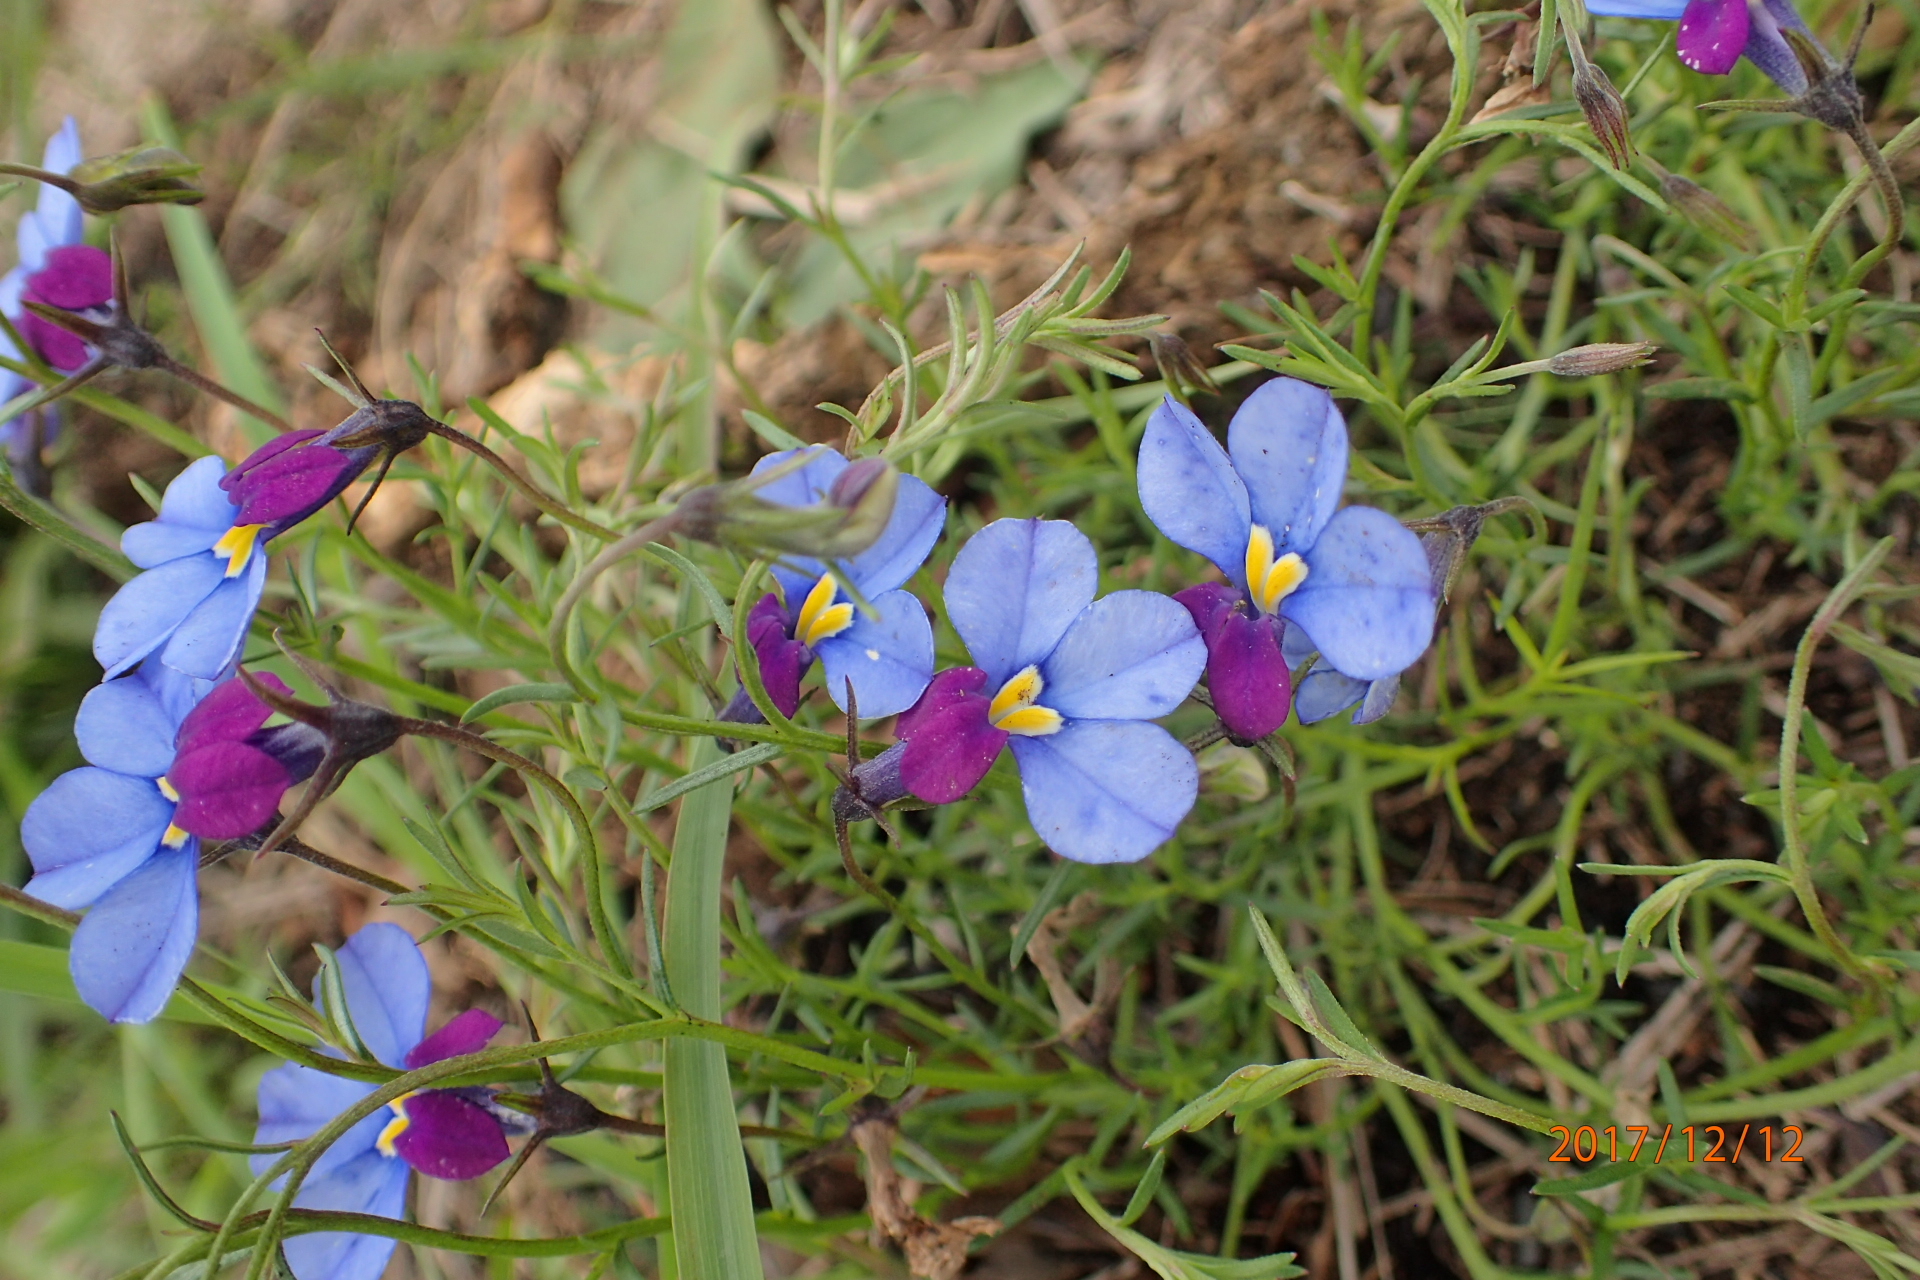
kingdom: Plantae
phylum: Tracheophyta
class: Magnoliopsida
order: Asterales
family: Campanulaceae
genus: Monopsis
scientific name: Monopsis decipiens
